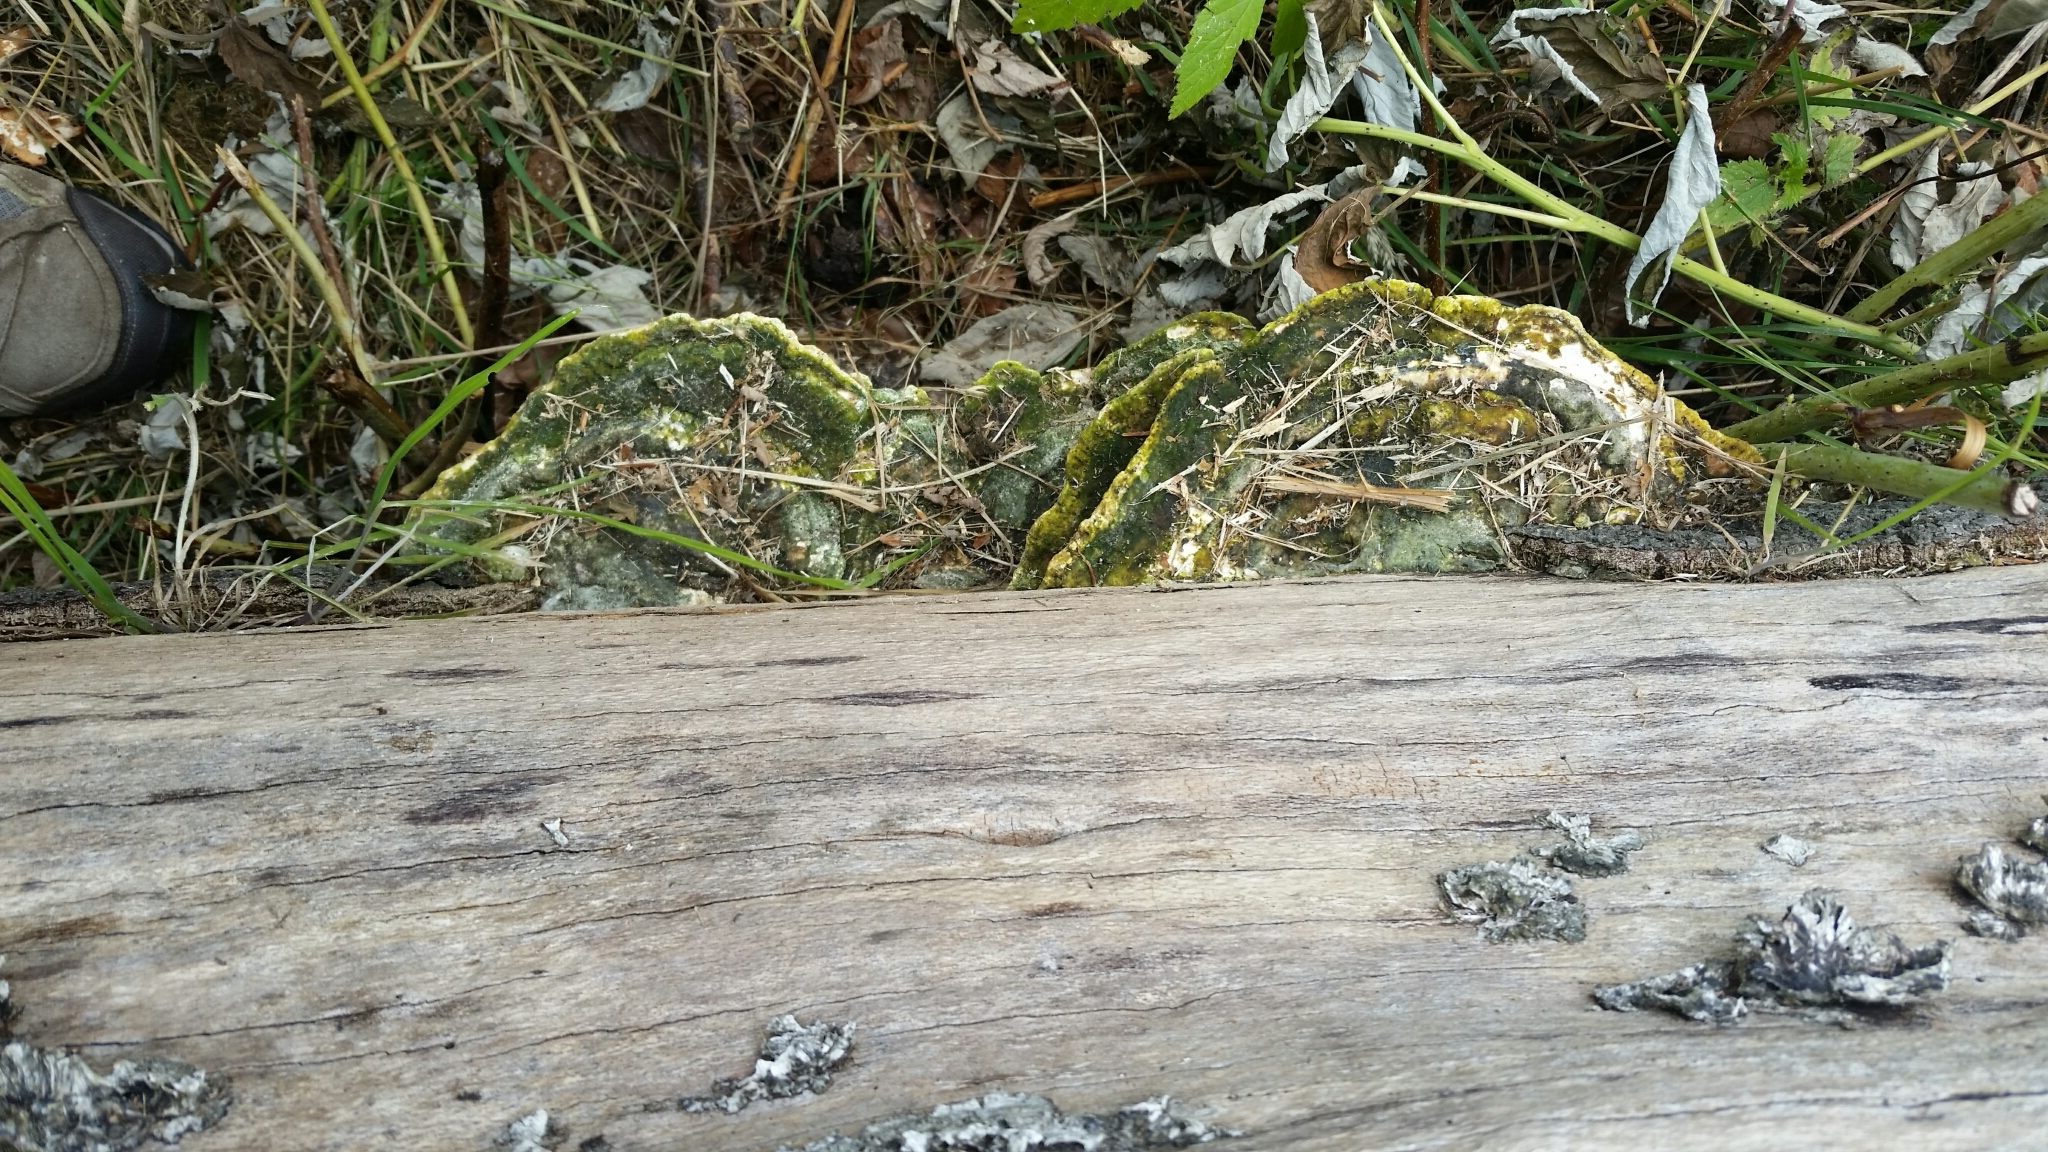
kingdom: Fungi
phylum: Basidiomycota
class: Agaricomycetes
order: Polyporales
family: Polyporaceae
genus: Trametes
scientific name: Trametes gibbosa
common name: Lumpy bracket
